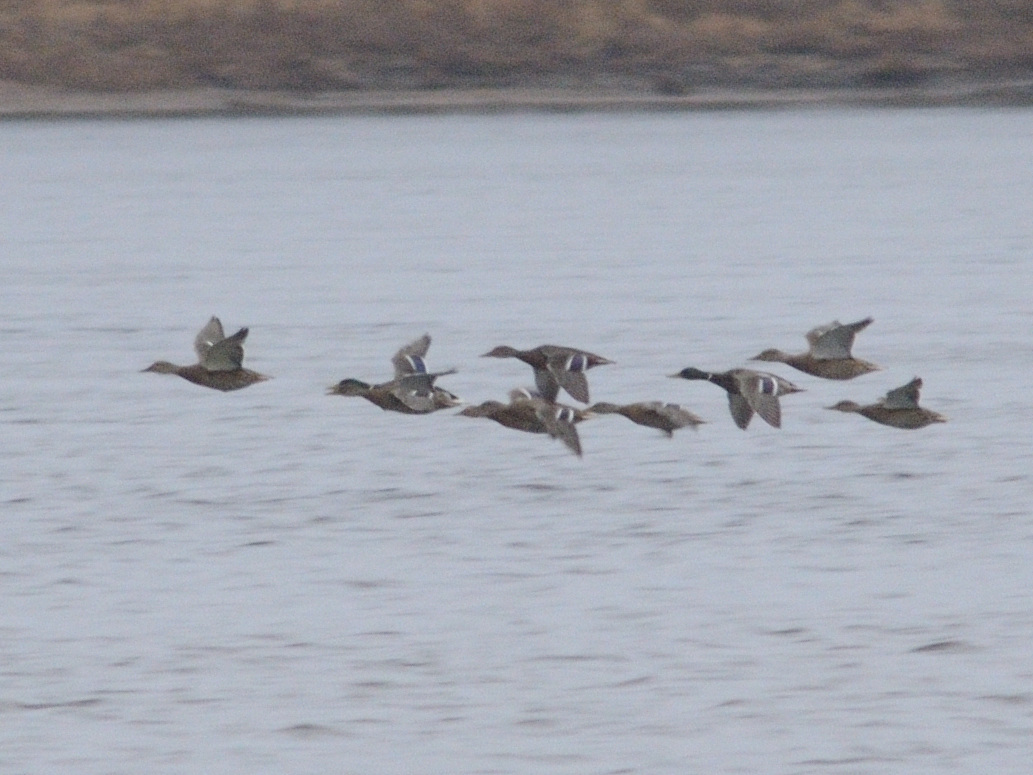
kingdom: Animalia
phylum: Chordata
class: Aves
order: Anseriformes
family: Anatidae
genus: Anas
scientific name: Anas platyrhynchos
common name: Mallard
